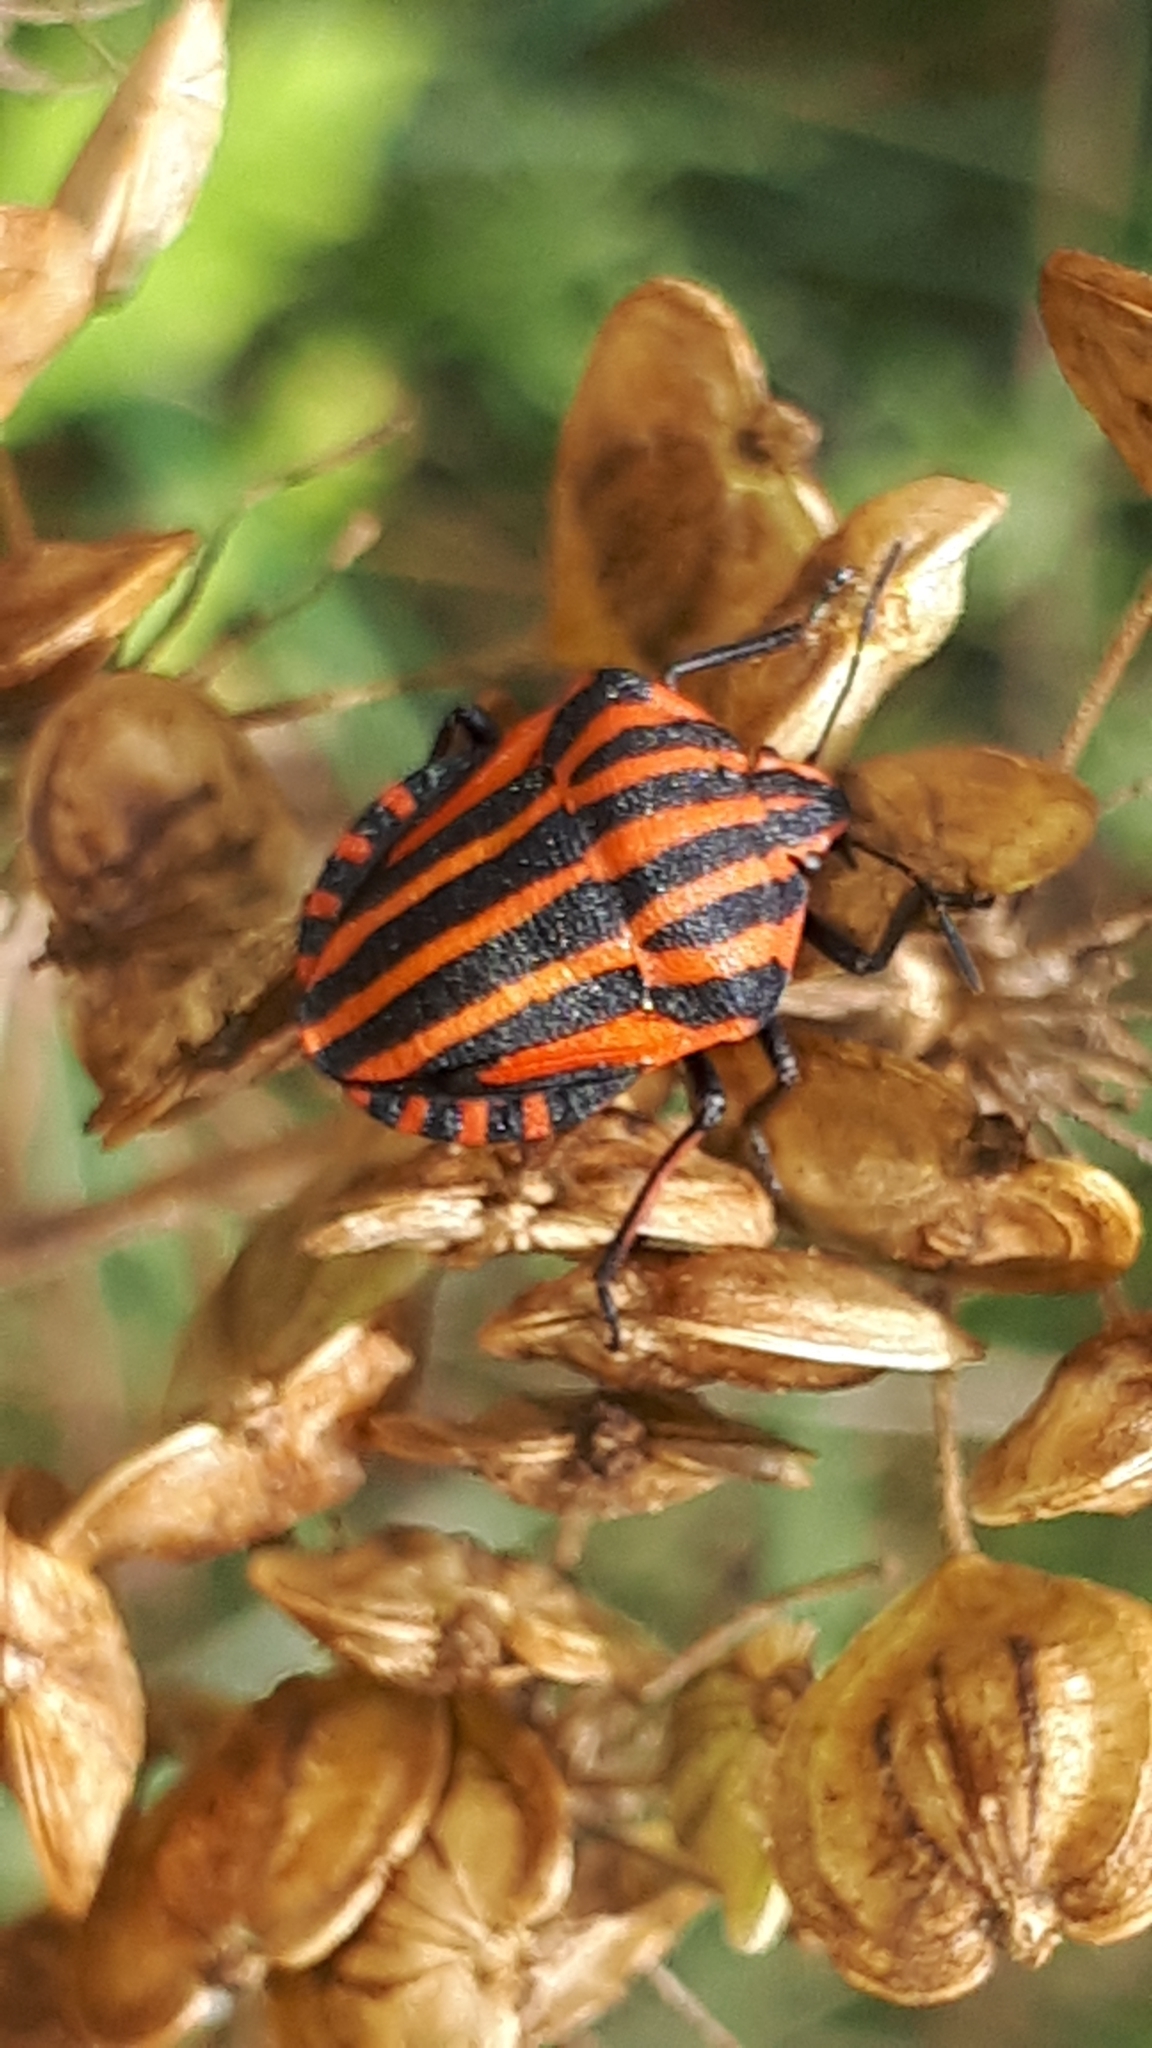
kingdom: Animalia
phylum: Arthropoda
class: Insecta
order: Hemiptera
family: Pentatomidae
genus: Graphosoma
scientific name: Graphosoma italicum
